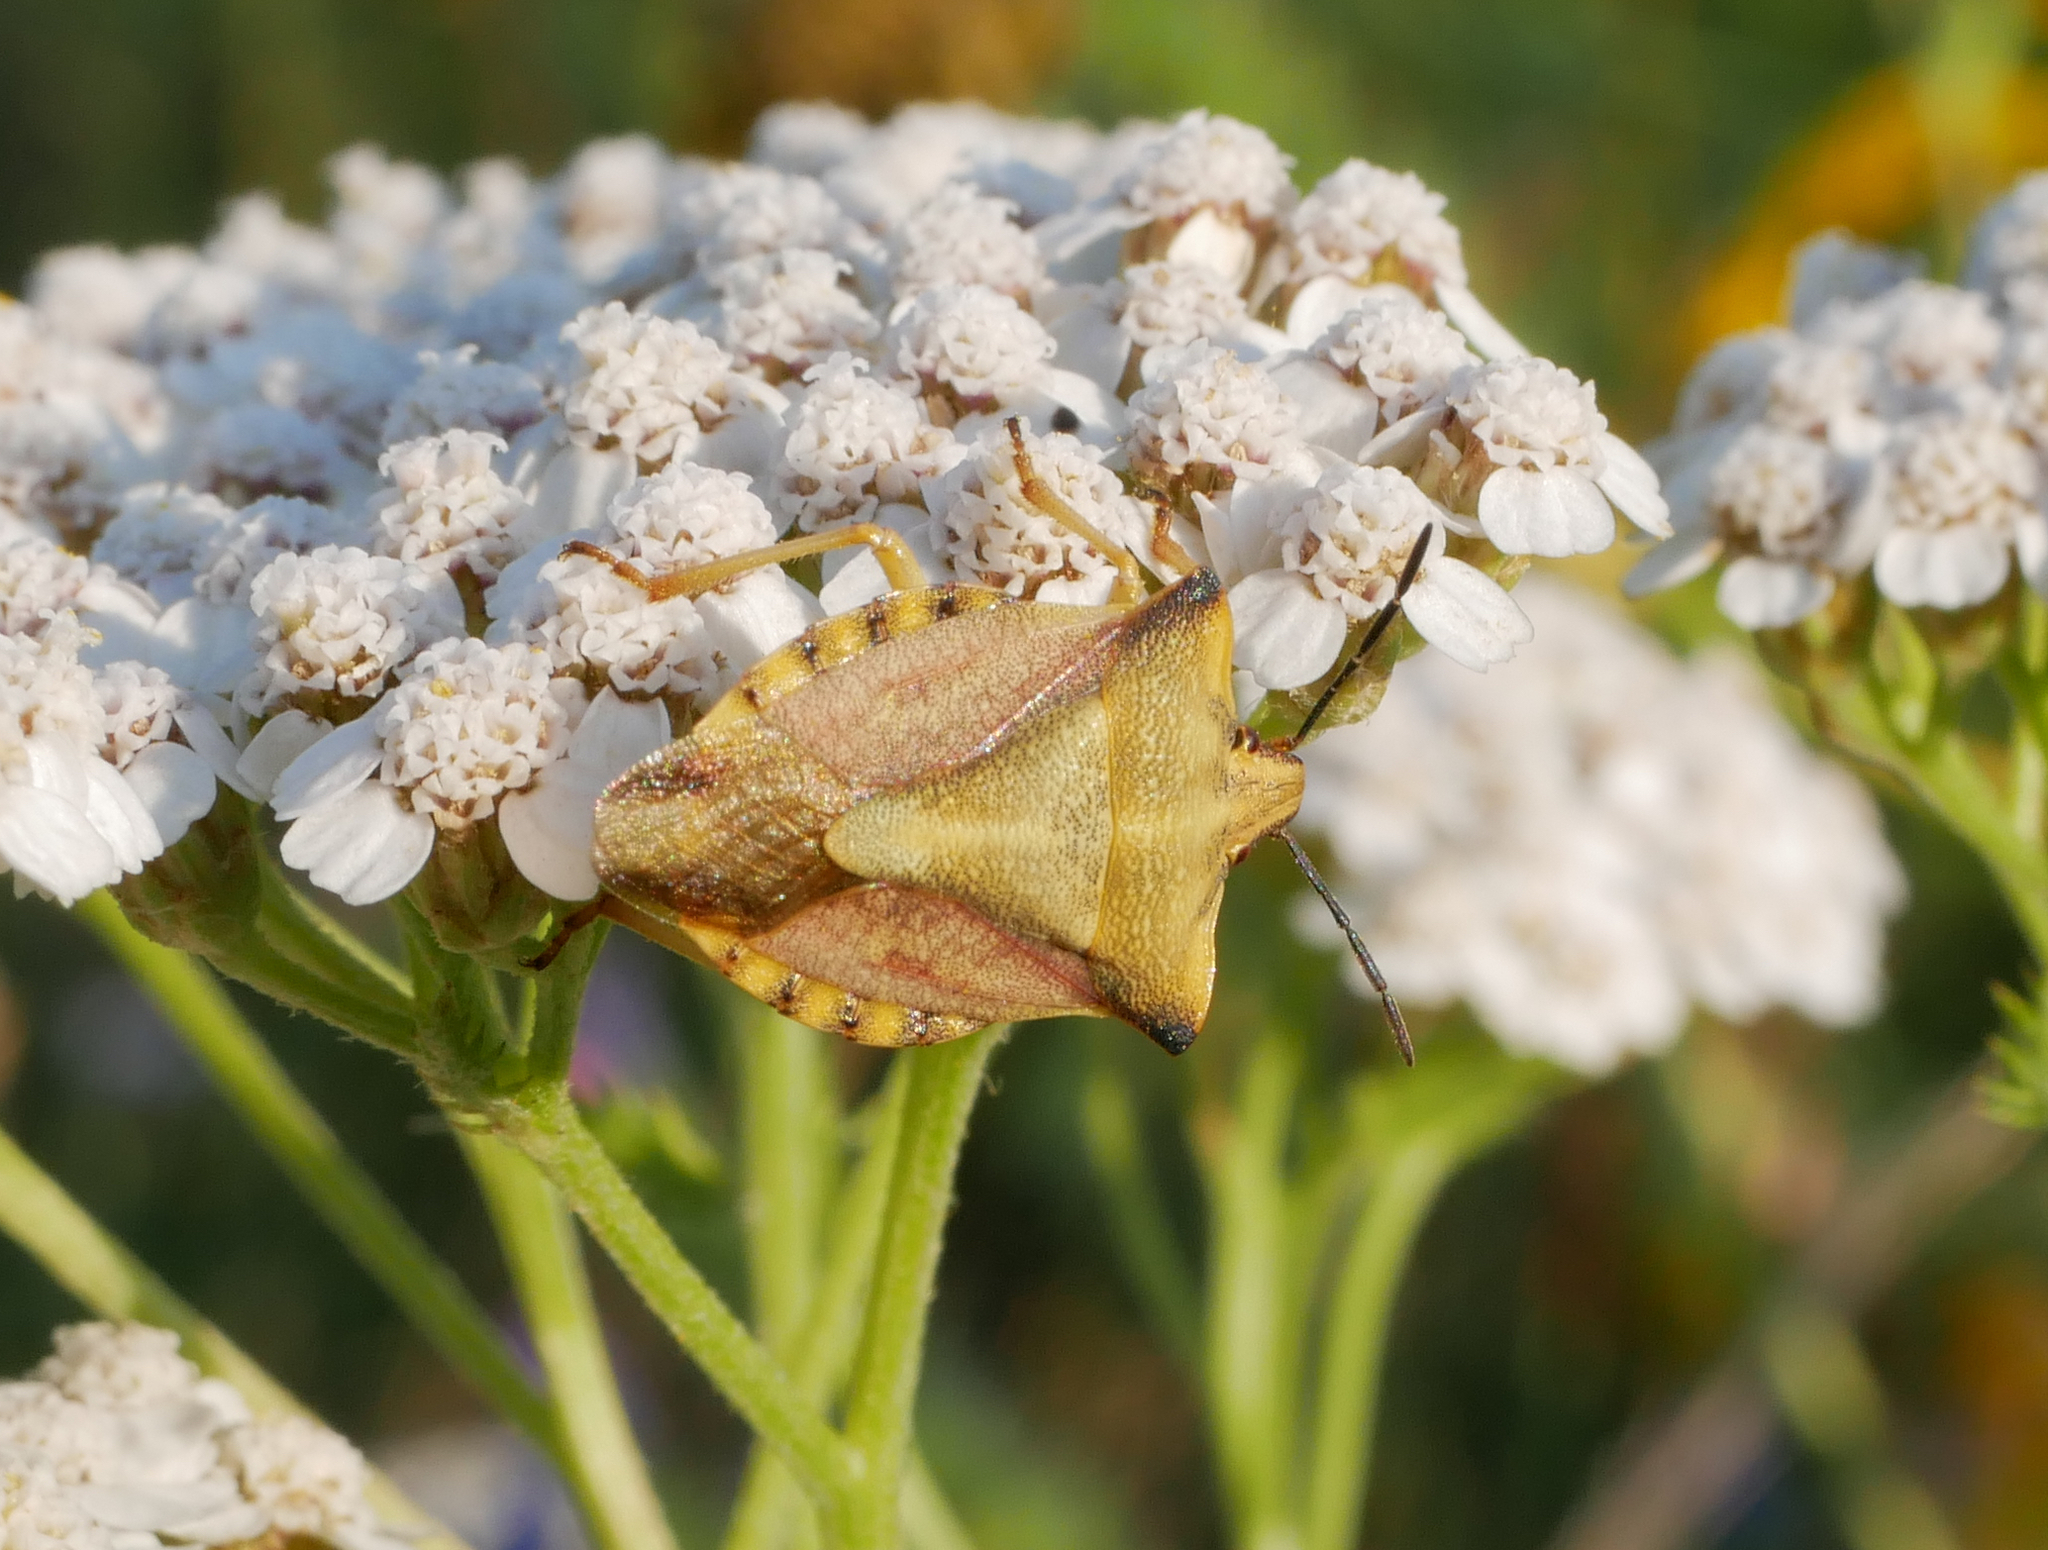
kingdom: Animalia
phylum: Arthropoda
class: Insecta
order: Hemiptera
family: Pentatomidae
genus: Carpocoris
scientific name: Carpocoris fuscispinus
